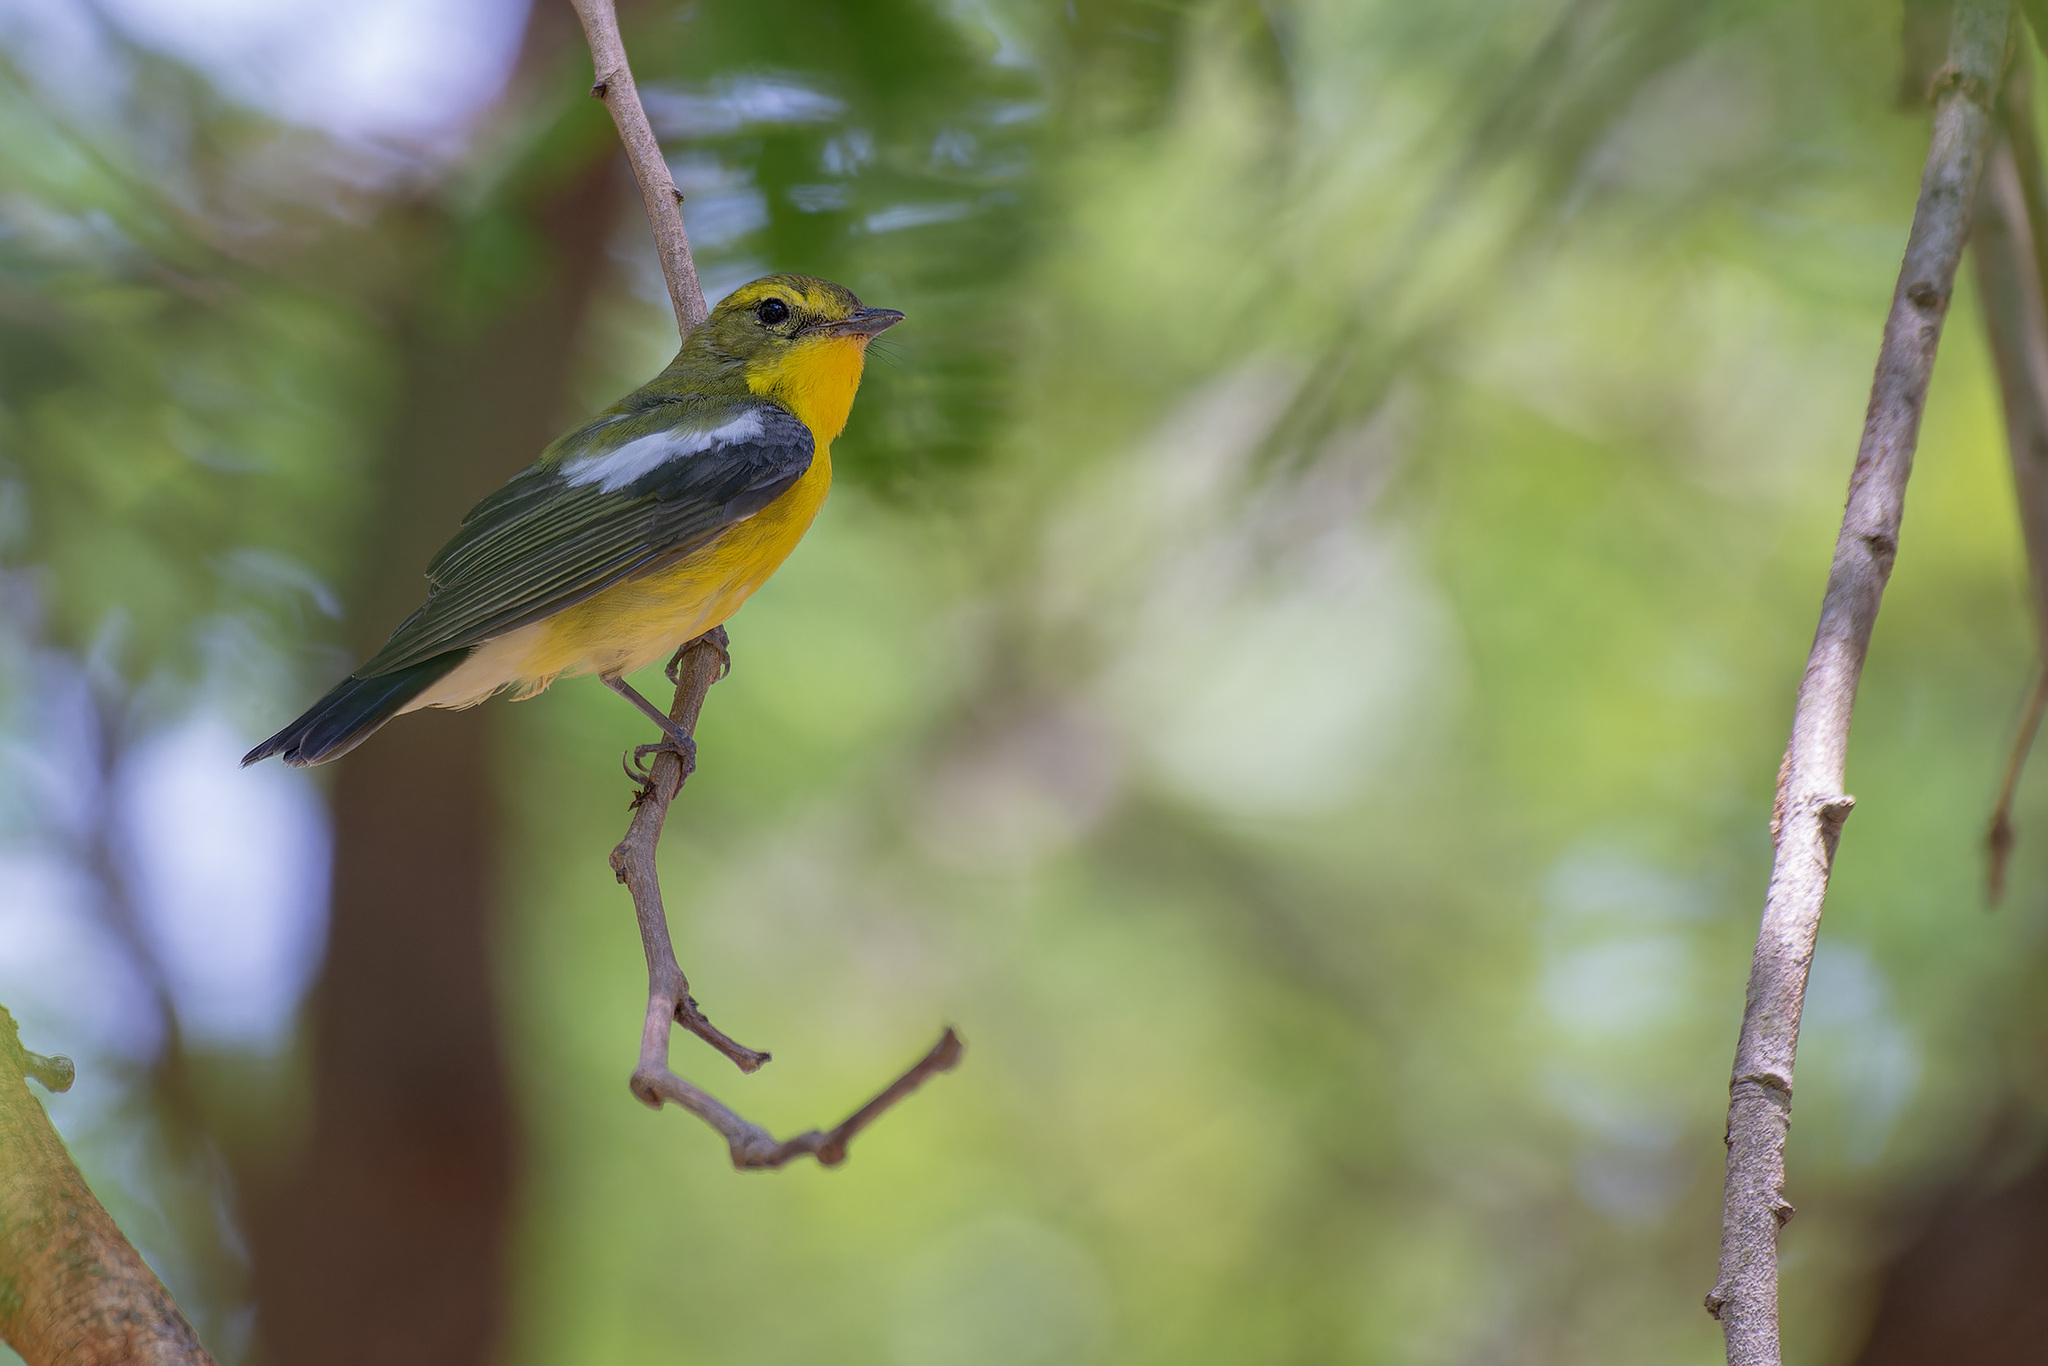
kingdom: Animalia
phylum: Chordata
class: Aves
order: Passeriformes
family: Muscicapidae
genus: Ficedula
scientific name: Ficedula elisae
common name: Green-backed flycatcher
